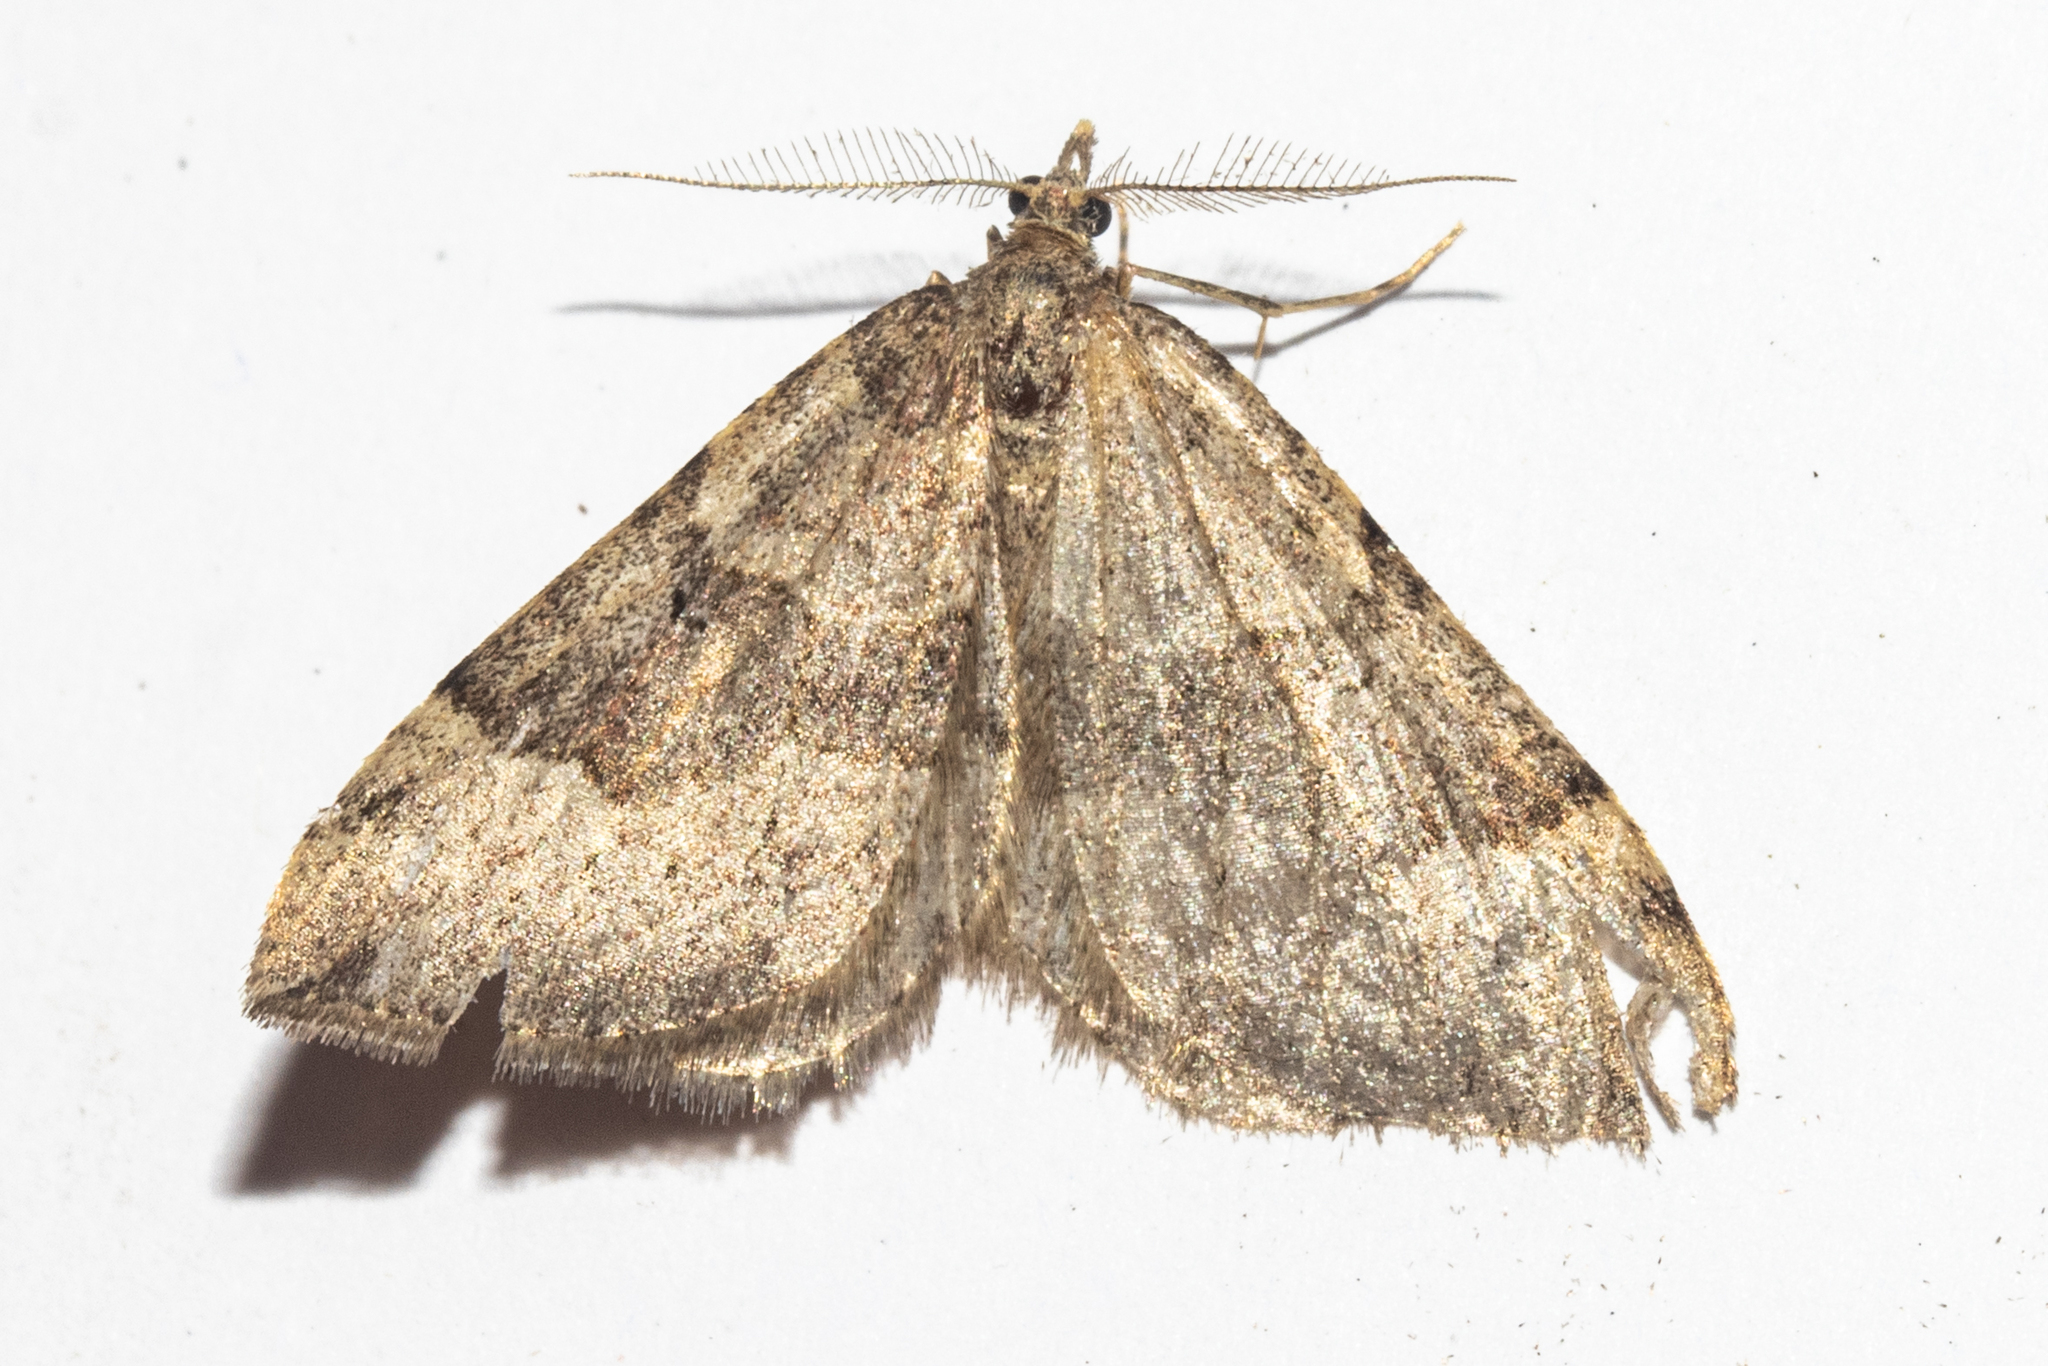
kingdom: Animalia
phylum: Arthropoda
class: Insecta
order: Lepidoptera
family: Geometridae
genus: Epyaxa
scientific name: Epyaxa rosearia
